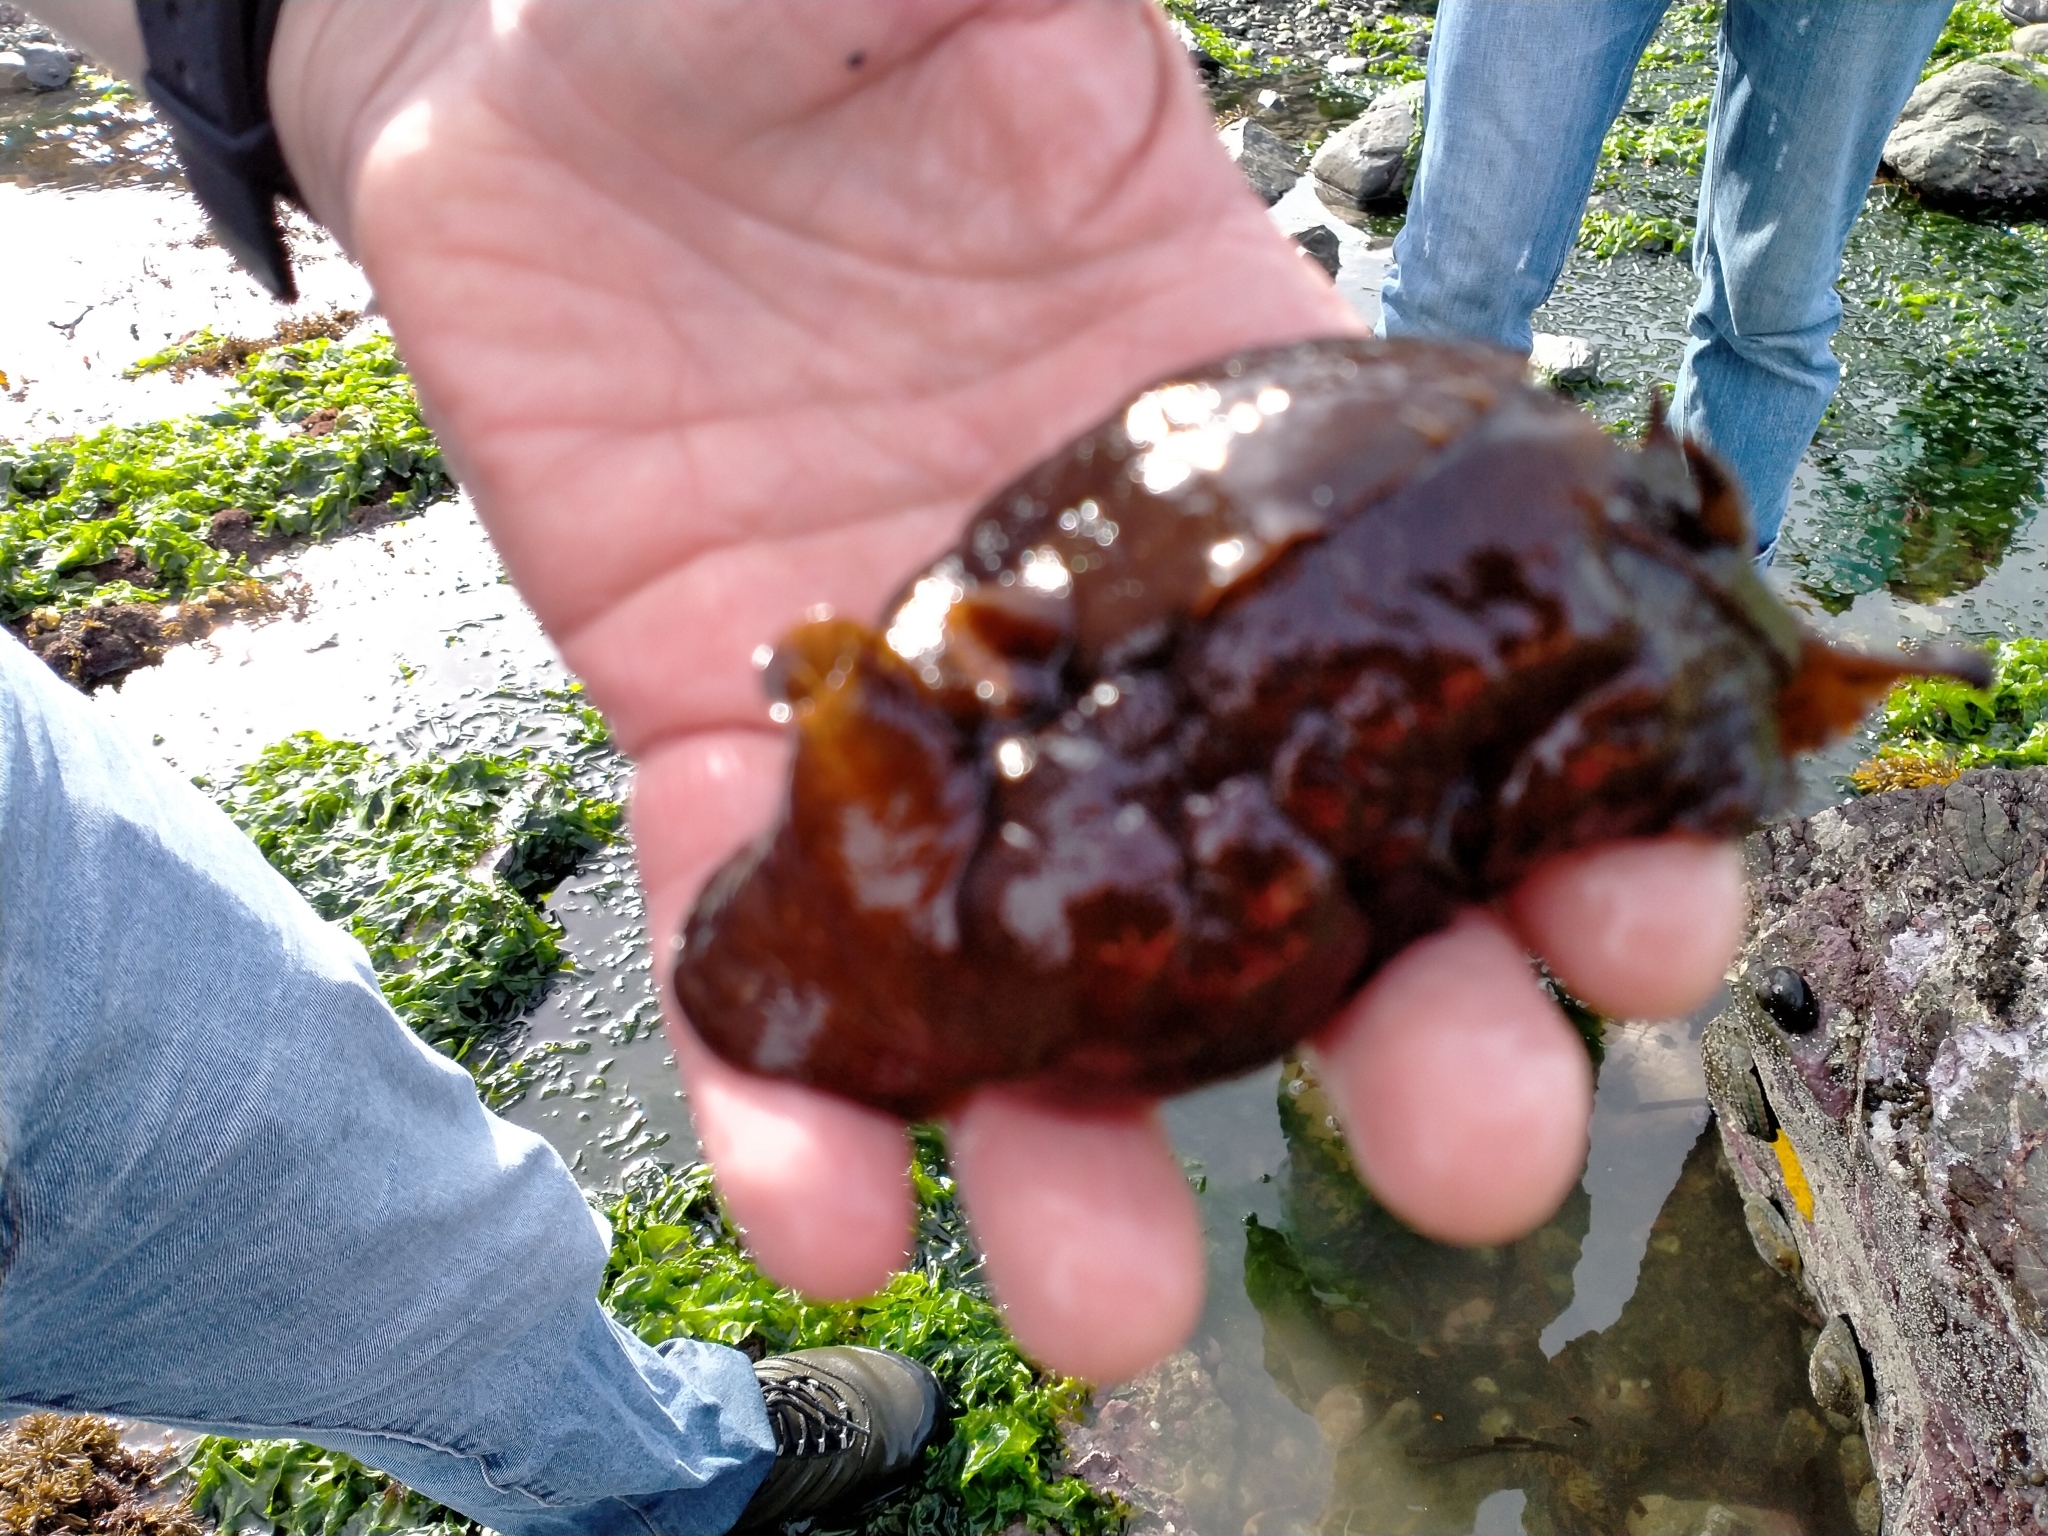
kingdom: Animalia
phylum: Mollusca
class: Gastropoda
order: Aplysiida
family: Aplysiidae
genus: Aplysia
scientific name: Aplysia juliana
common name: Walking sea hare
